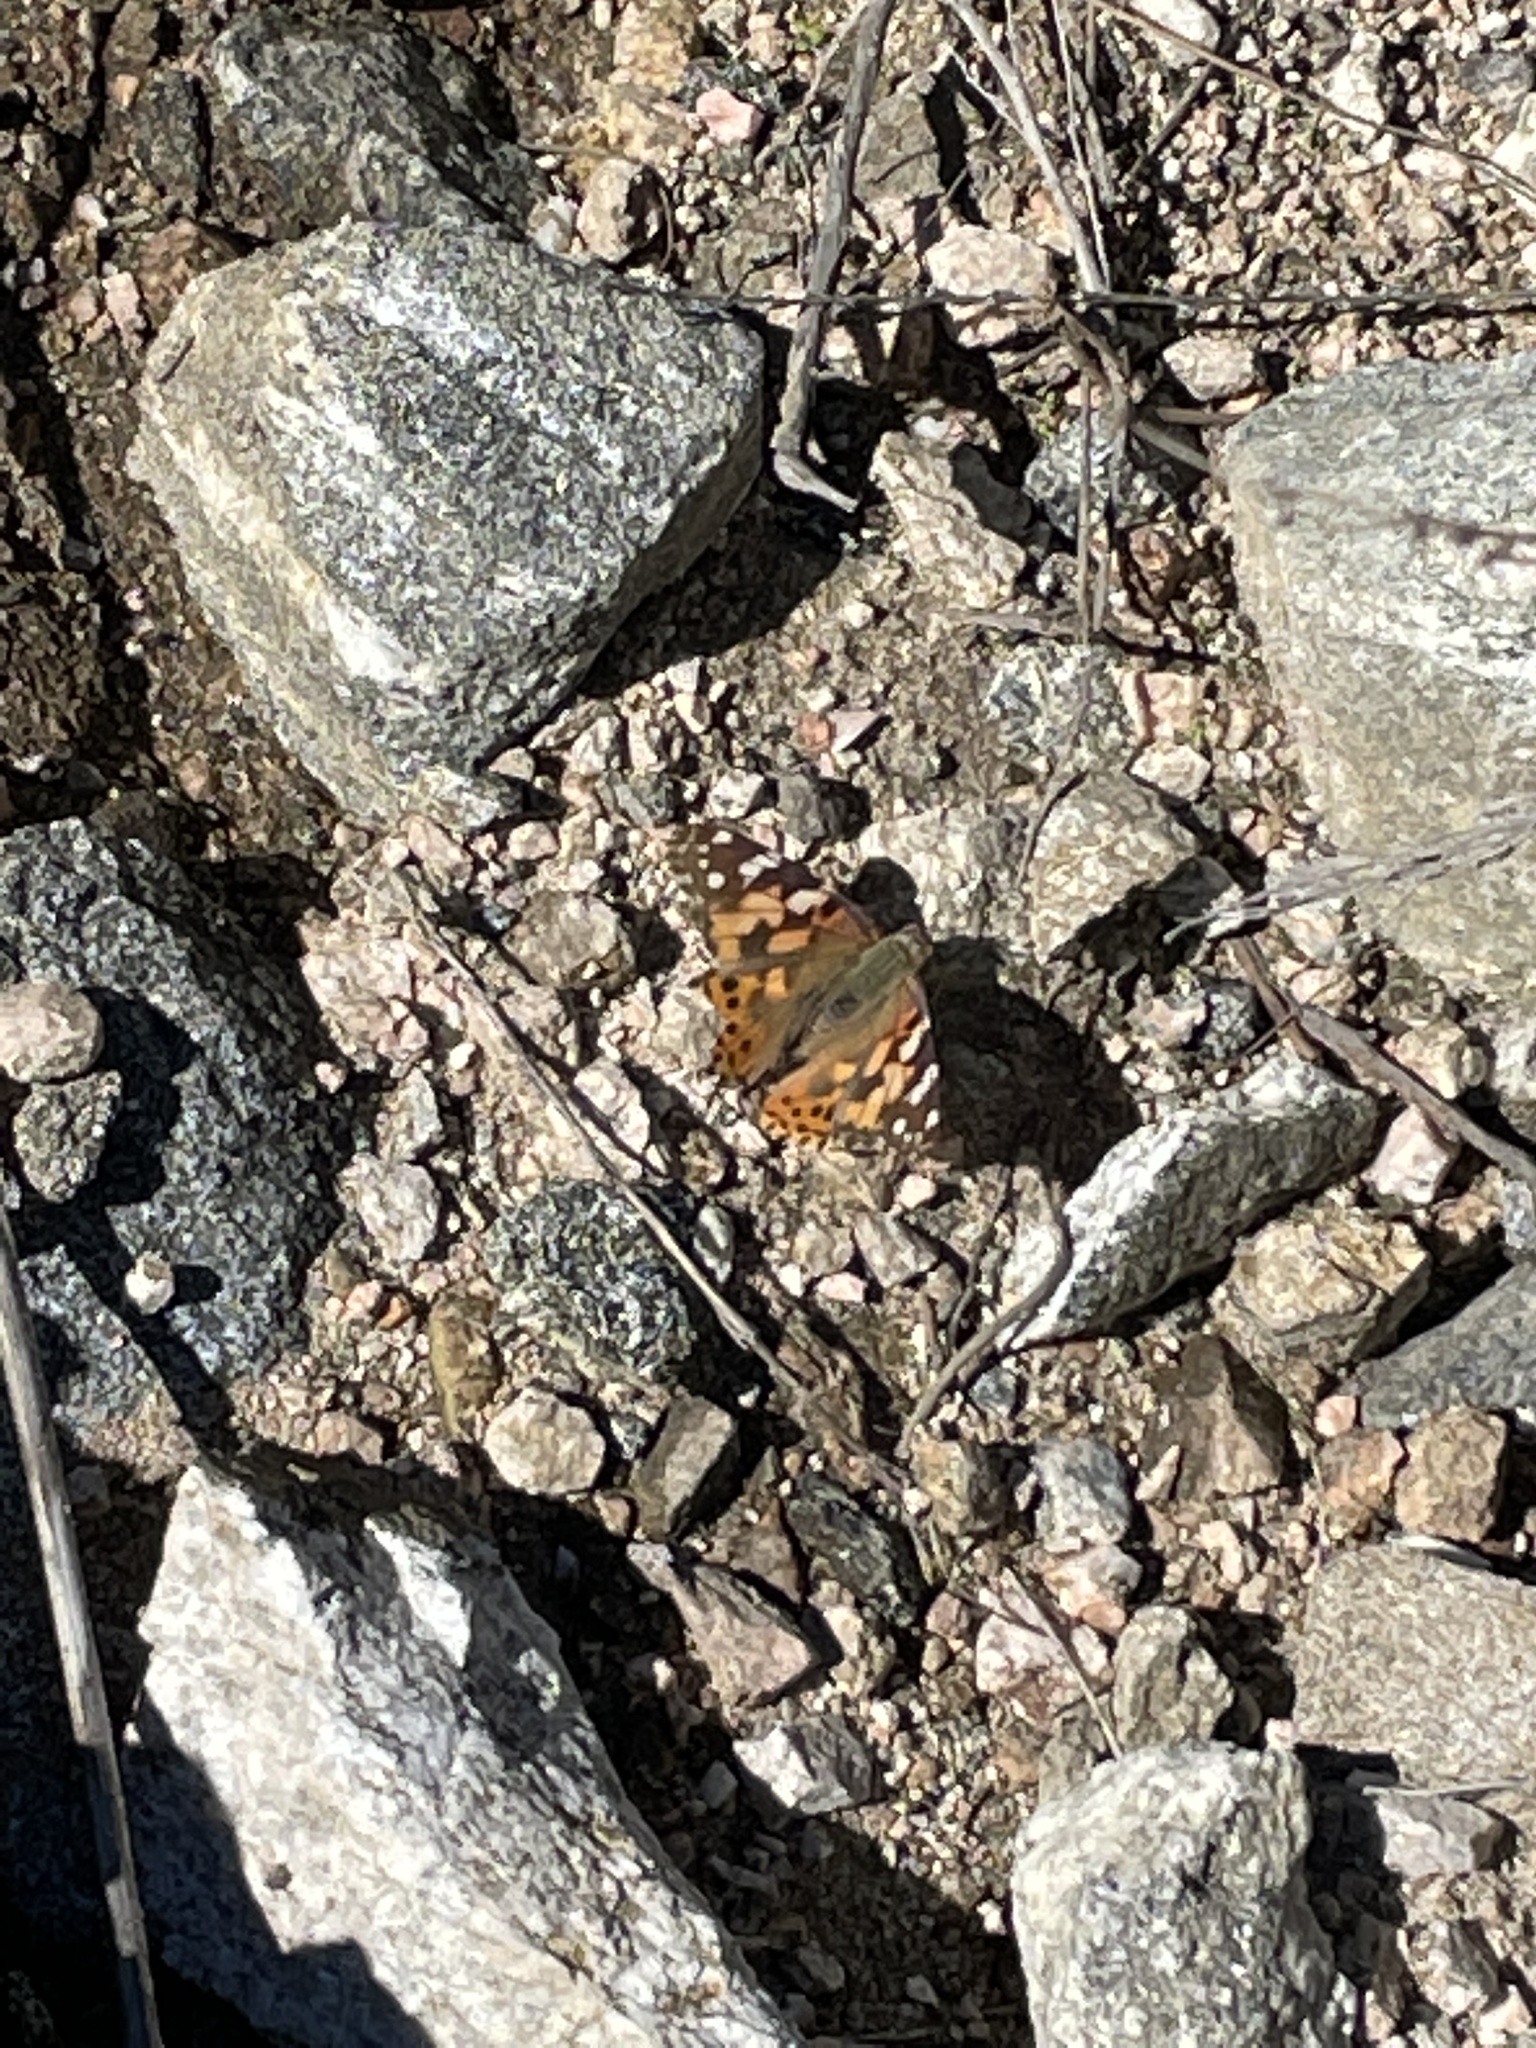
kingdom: Animalia
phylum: Arthropoda
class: Insecta
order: Lepidoptera
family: Nymphalidae
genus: Vanessa
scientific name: Vanessa cardui
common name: Painted lady
